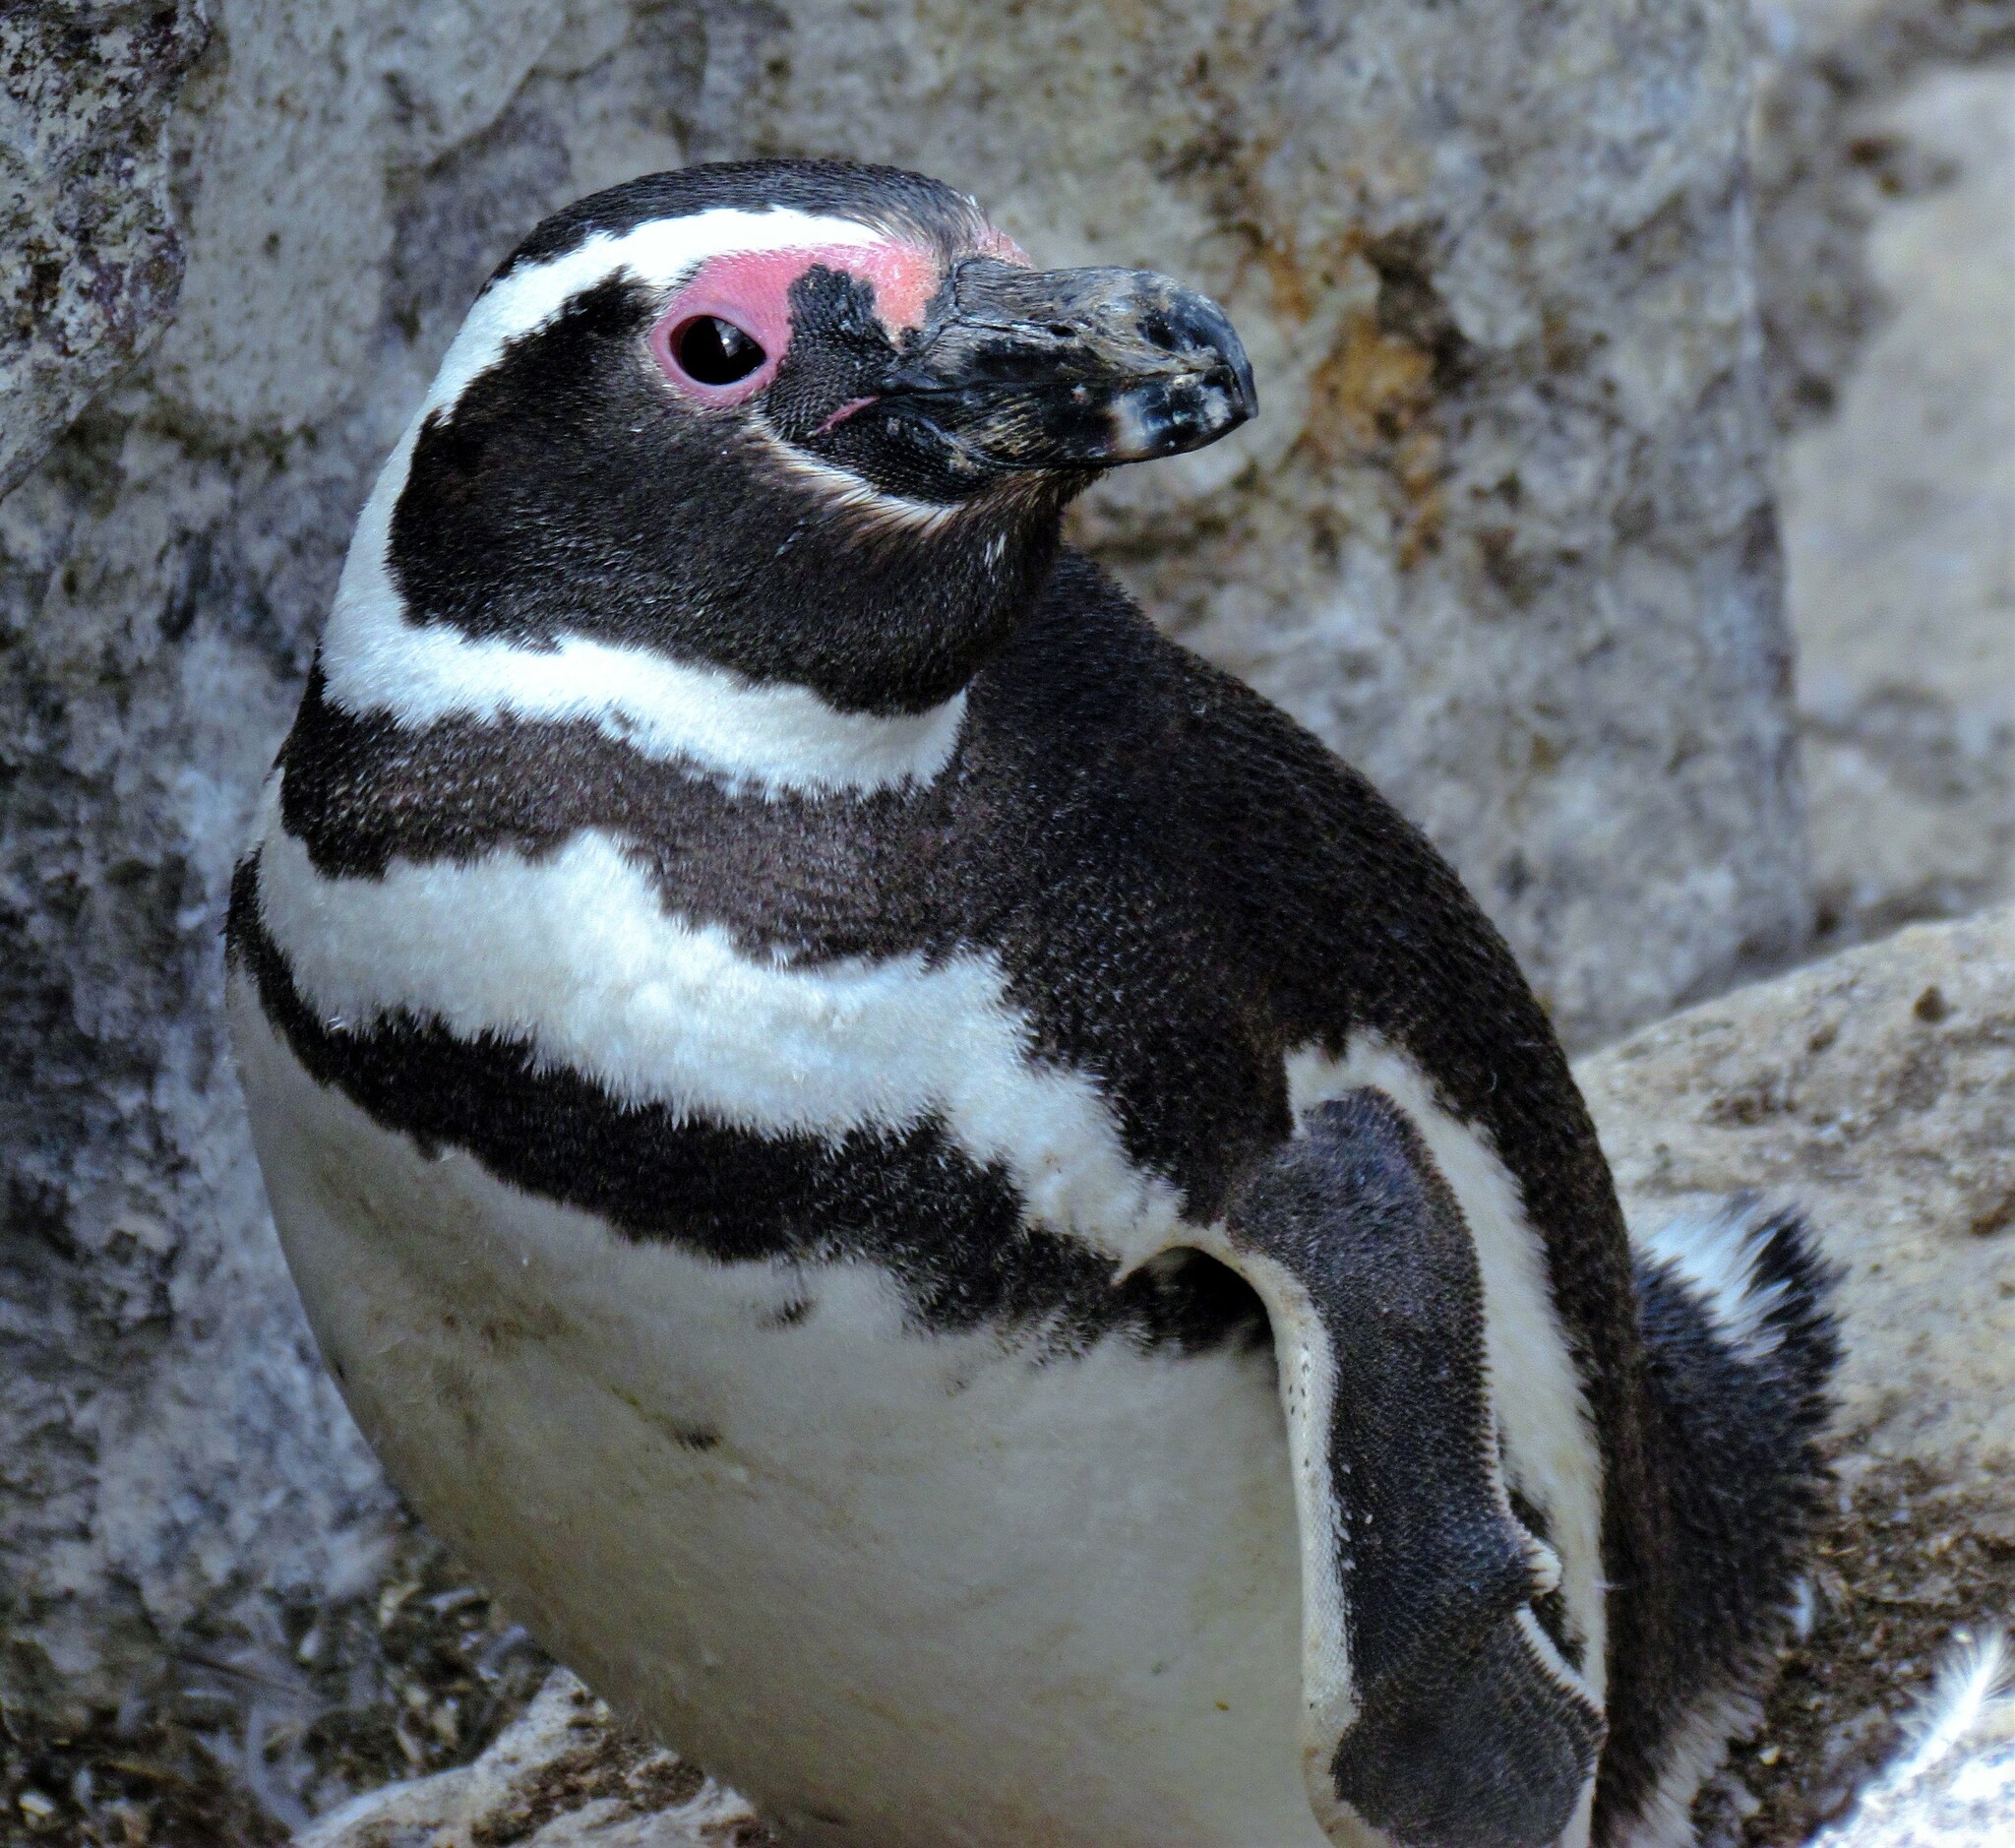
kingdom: Animalia
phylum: Chordata
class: Aves
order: Sphenisciformes
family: Spheniscidae
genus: Spheniscus
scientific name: Spheniscus magellanicus
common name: Magellanic penguin
